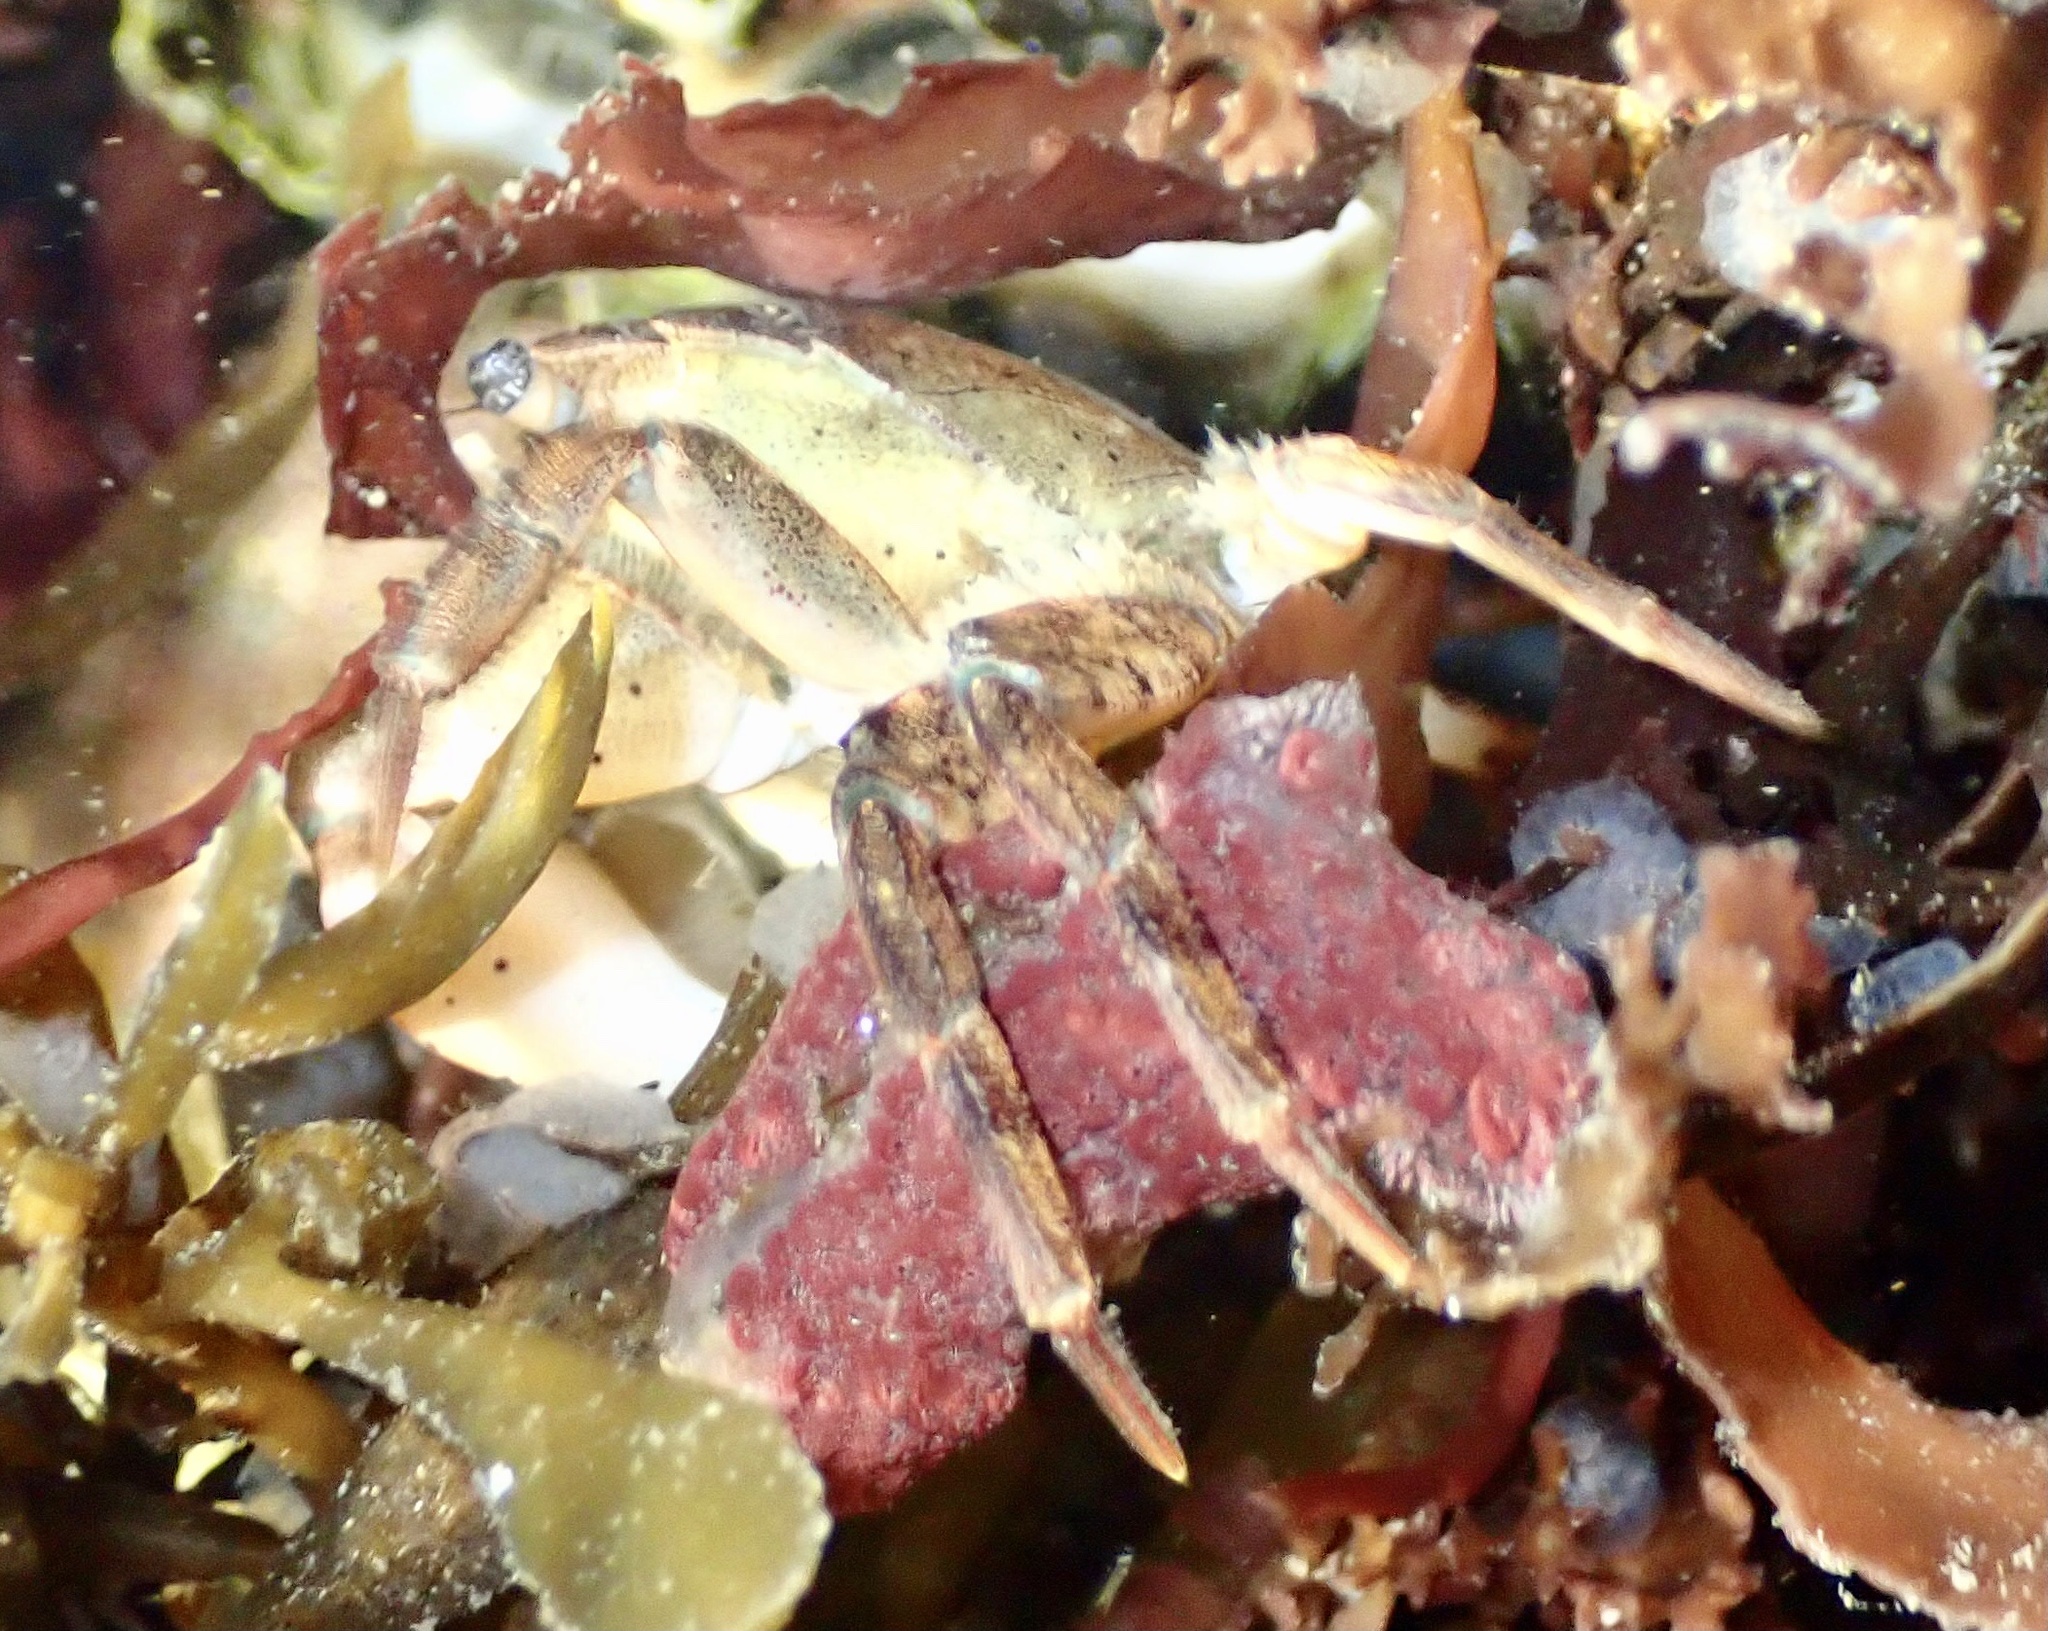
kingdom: Animalia
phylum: Arthropoda
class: Malacostraca
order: Decapoda
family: Varunidae
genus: Hemigrapsus
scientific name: Hemigrapsus takanoi
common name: Asian brush crab
